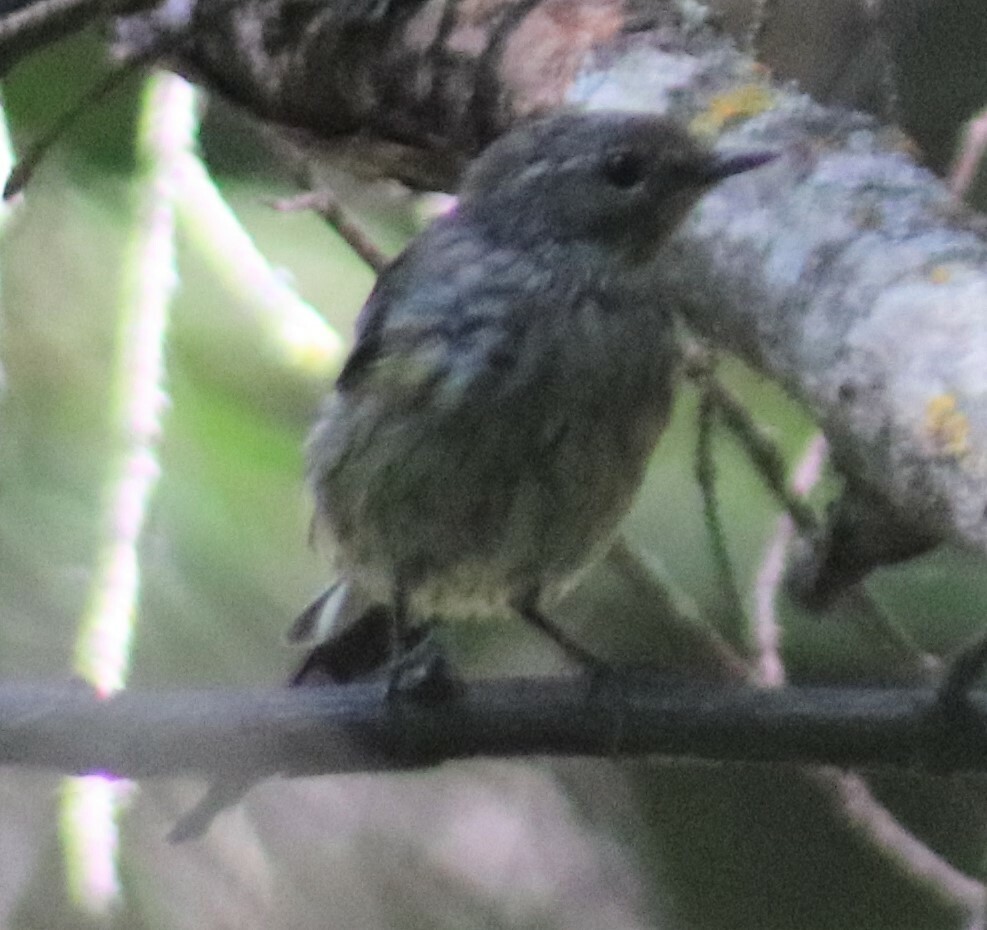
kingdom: Animalia
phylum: Chordata
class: Aves
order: Passeriformes
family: Parulidae
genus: Setophaga
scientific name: Setophaga coronata
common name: Myrtle warbler
